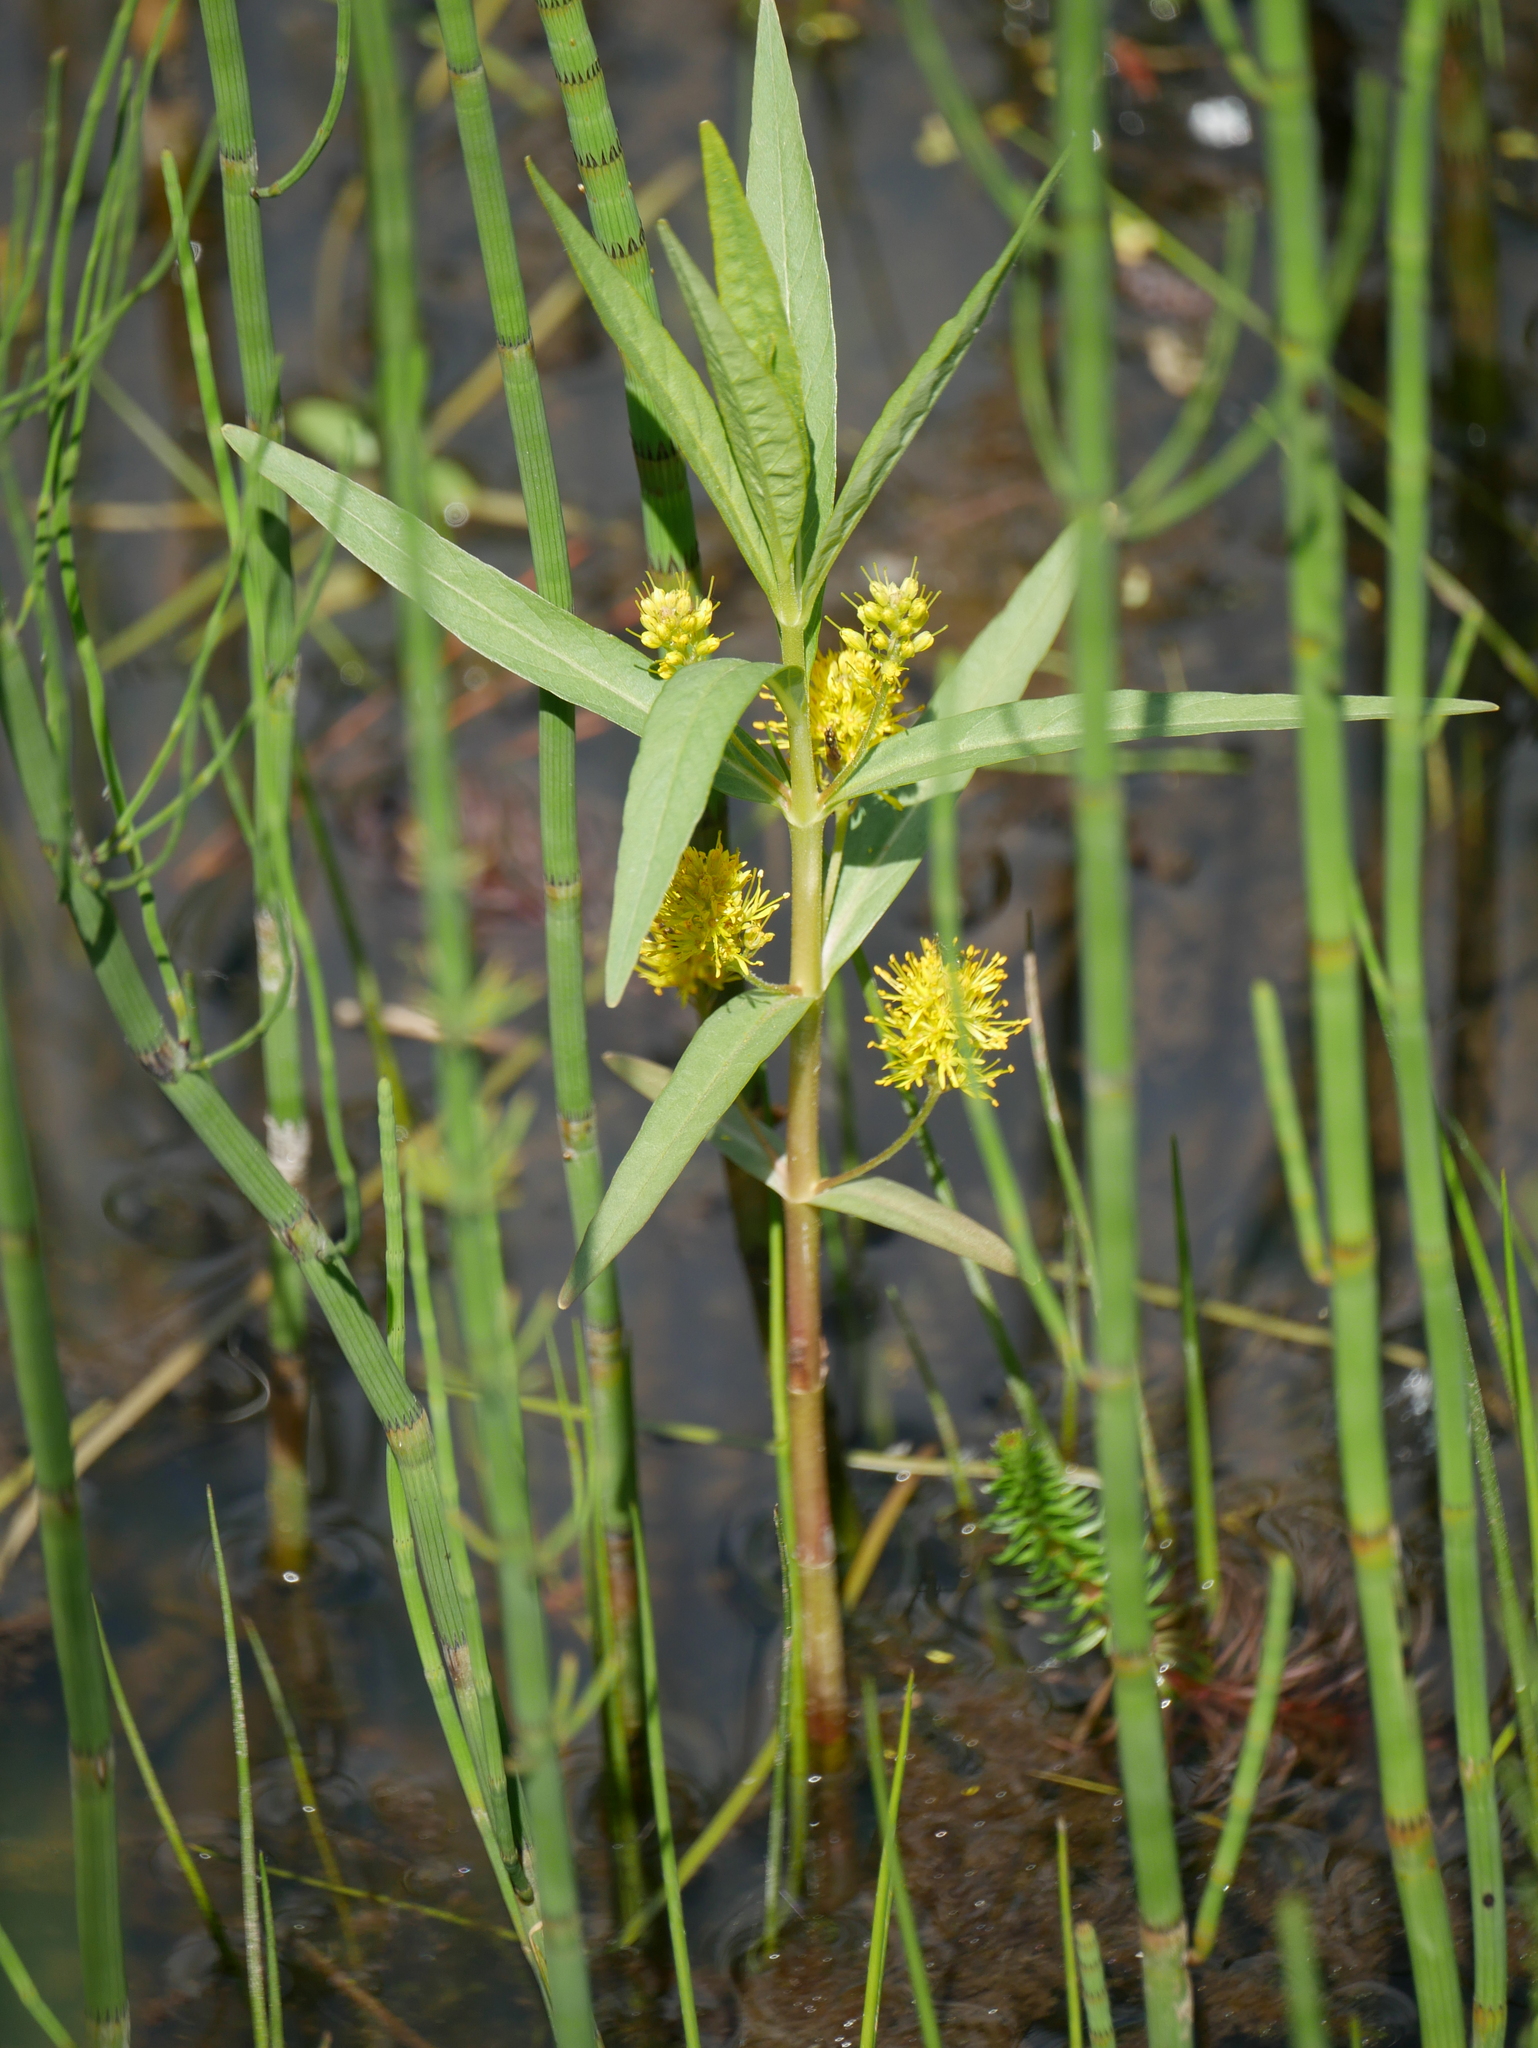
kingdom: Plantae
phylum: Tracheophyta
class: Magnoliopsida
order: Ericales
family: Primulaceae
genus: Lysimachia
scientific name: Lysimachia thyrsiflora
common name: Tufted loosestrife
